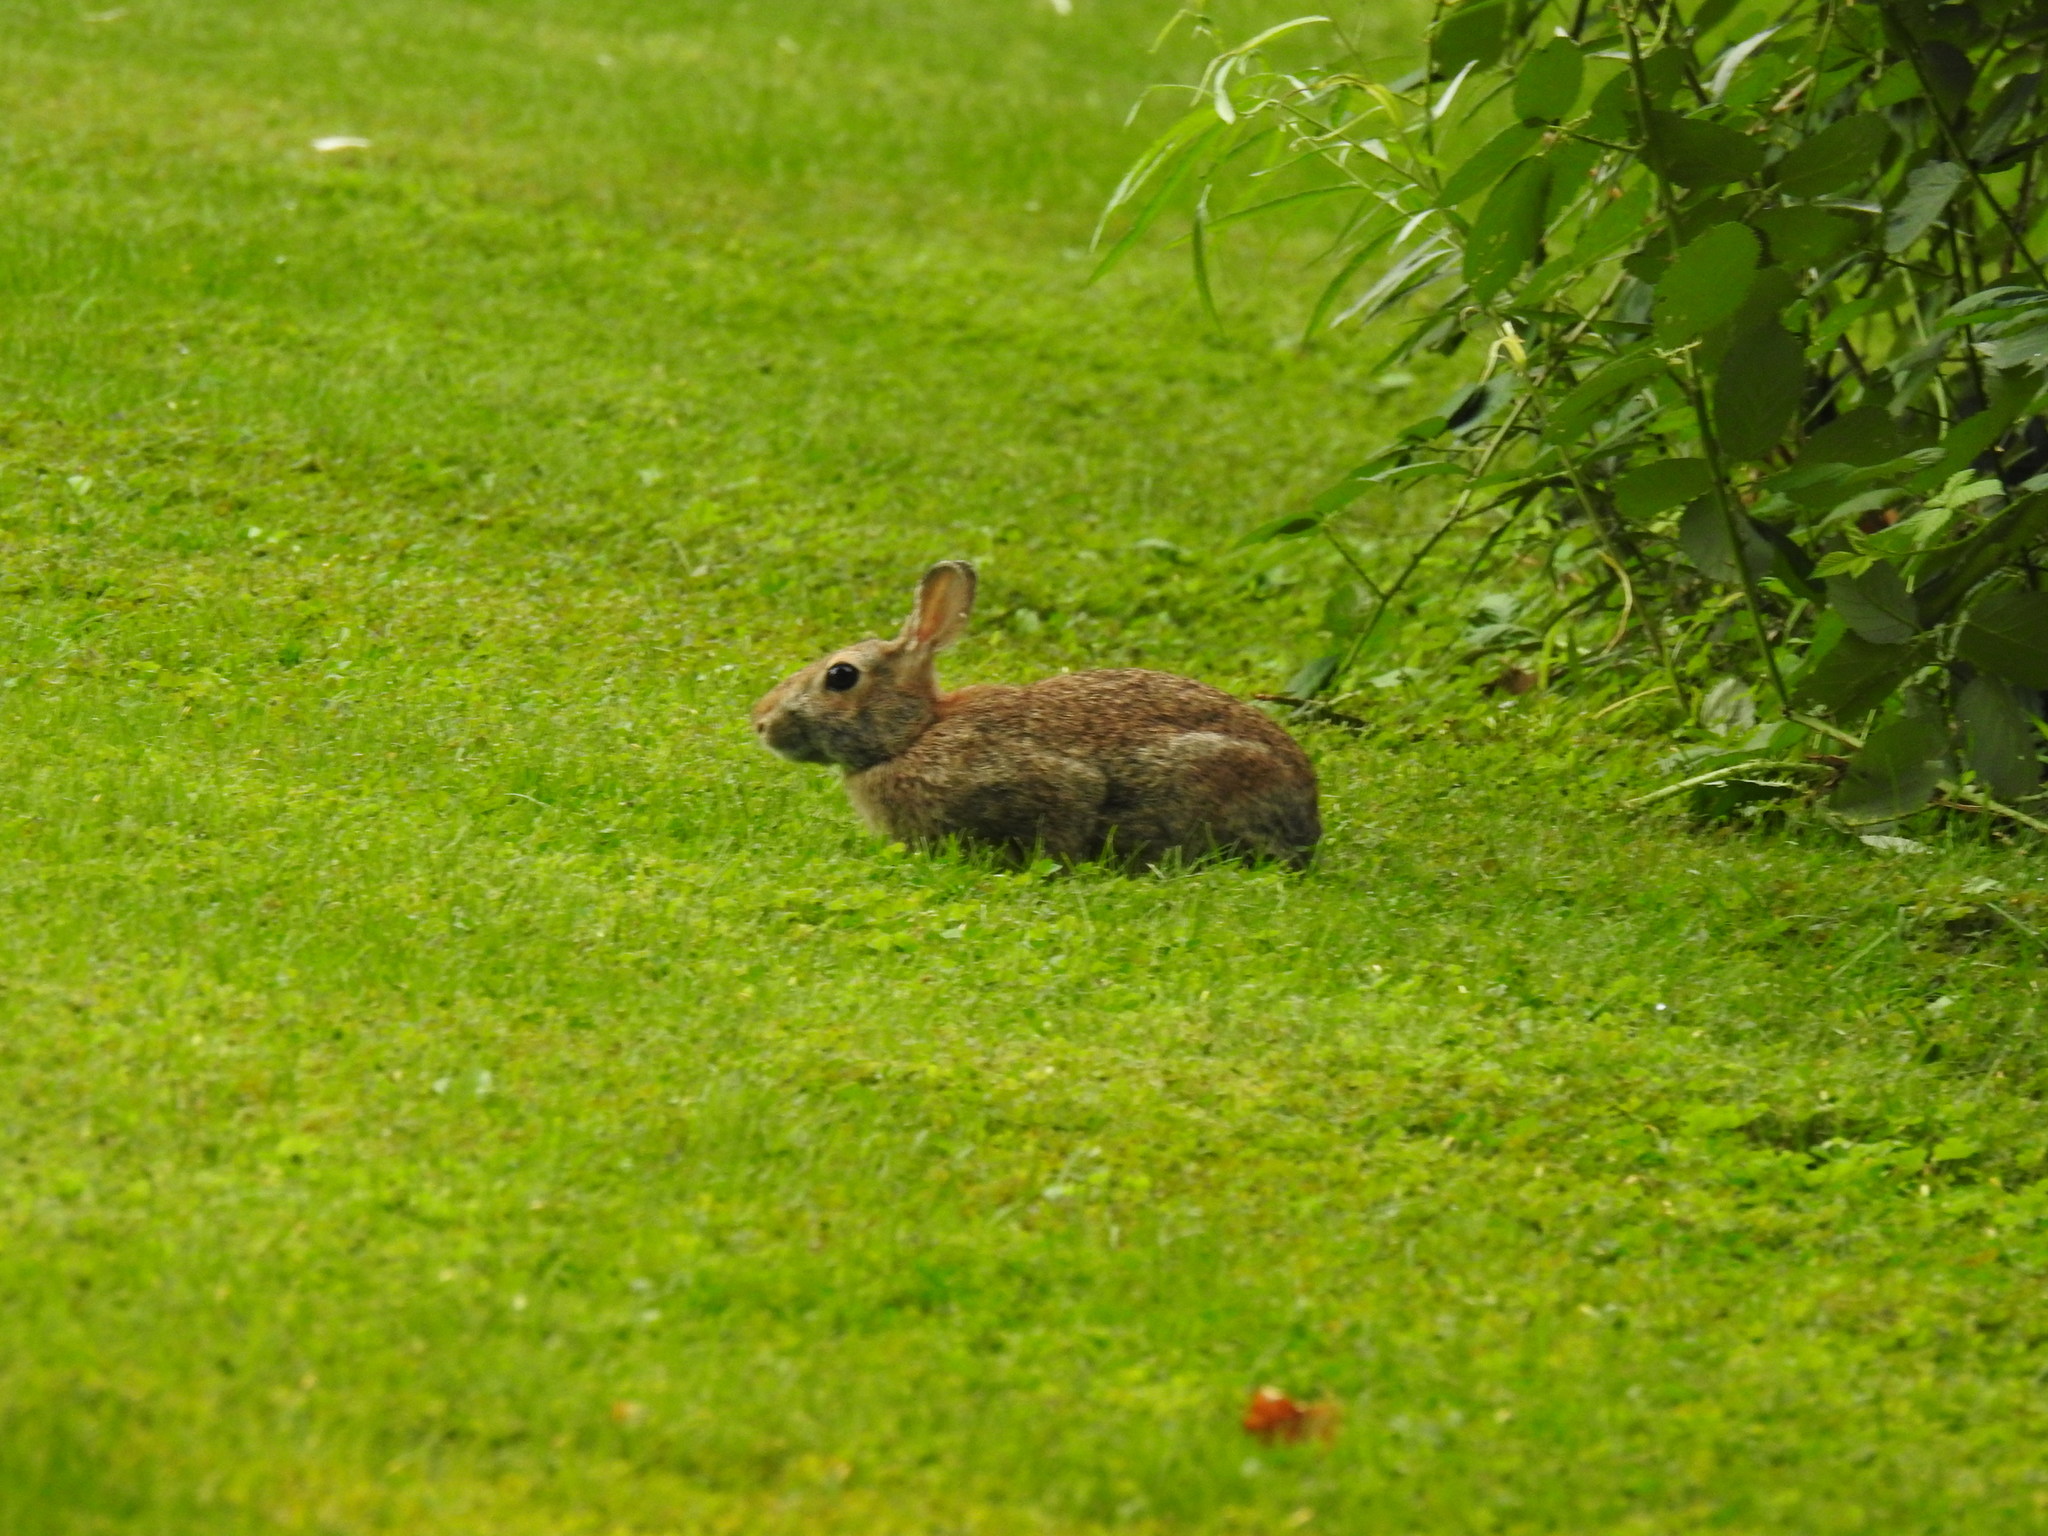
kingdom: Animalia
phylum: Chordata
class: Mammalia
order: Lagomorpha
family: Leporidae
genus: Sylvilagus
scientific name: Sylvilagus floridanus
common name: Eastern cottontail
